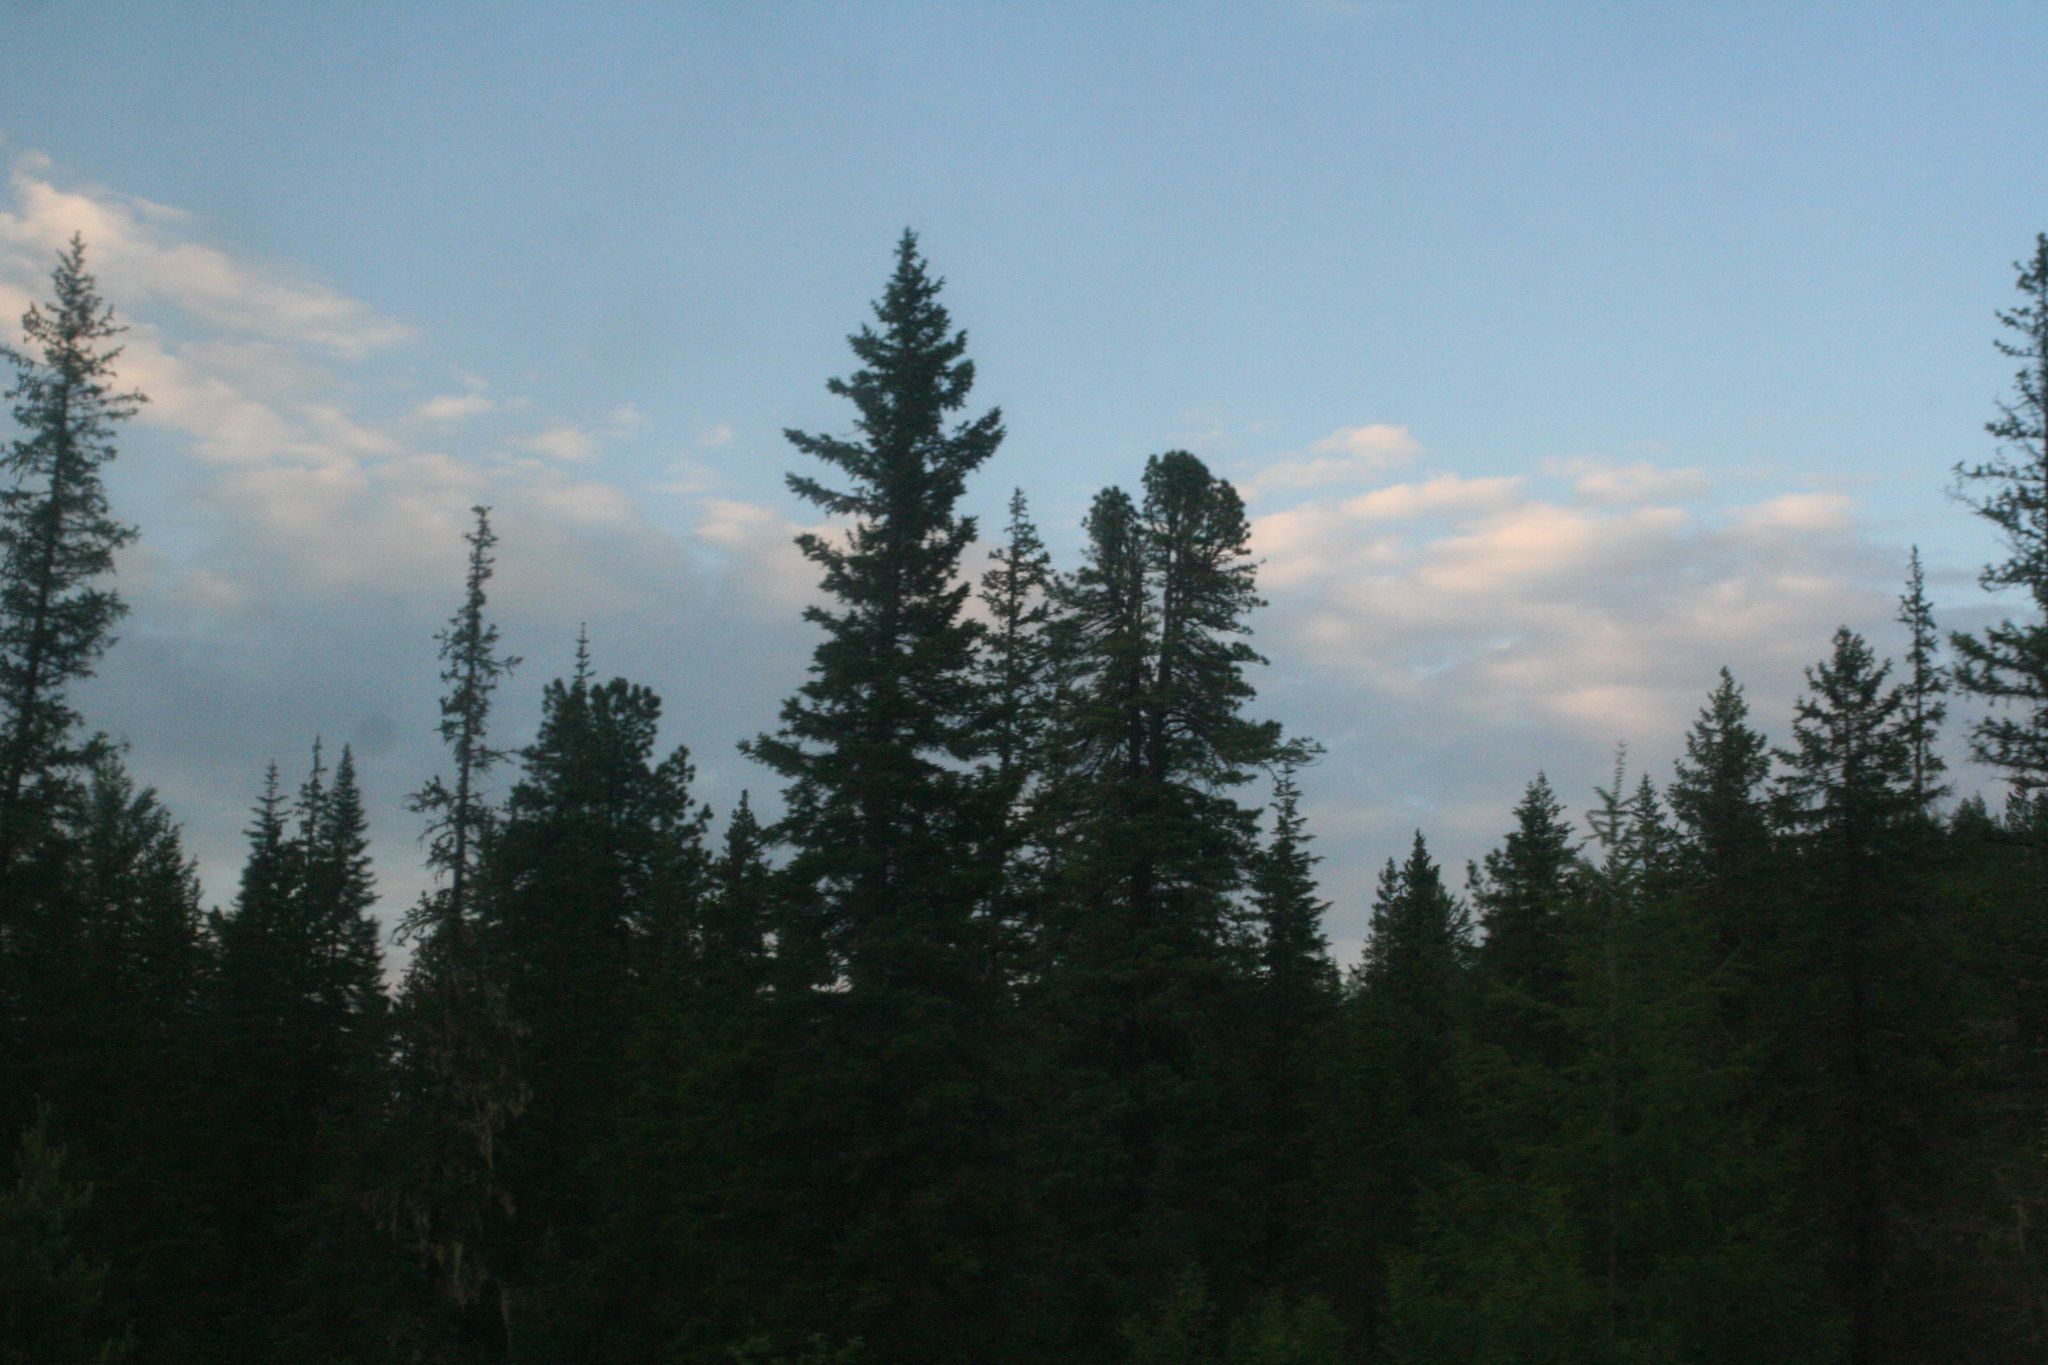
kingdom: Plantae
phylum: Tracheophyta
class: Pinopsida
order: Pinales
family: Pinaceae
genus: Picea
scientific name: Picea obovata
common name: Siberian spruce
